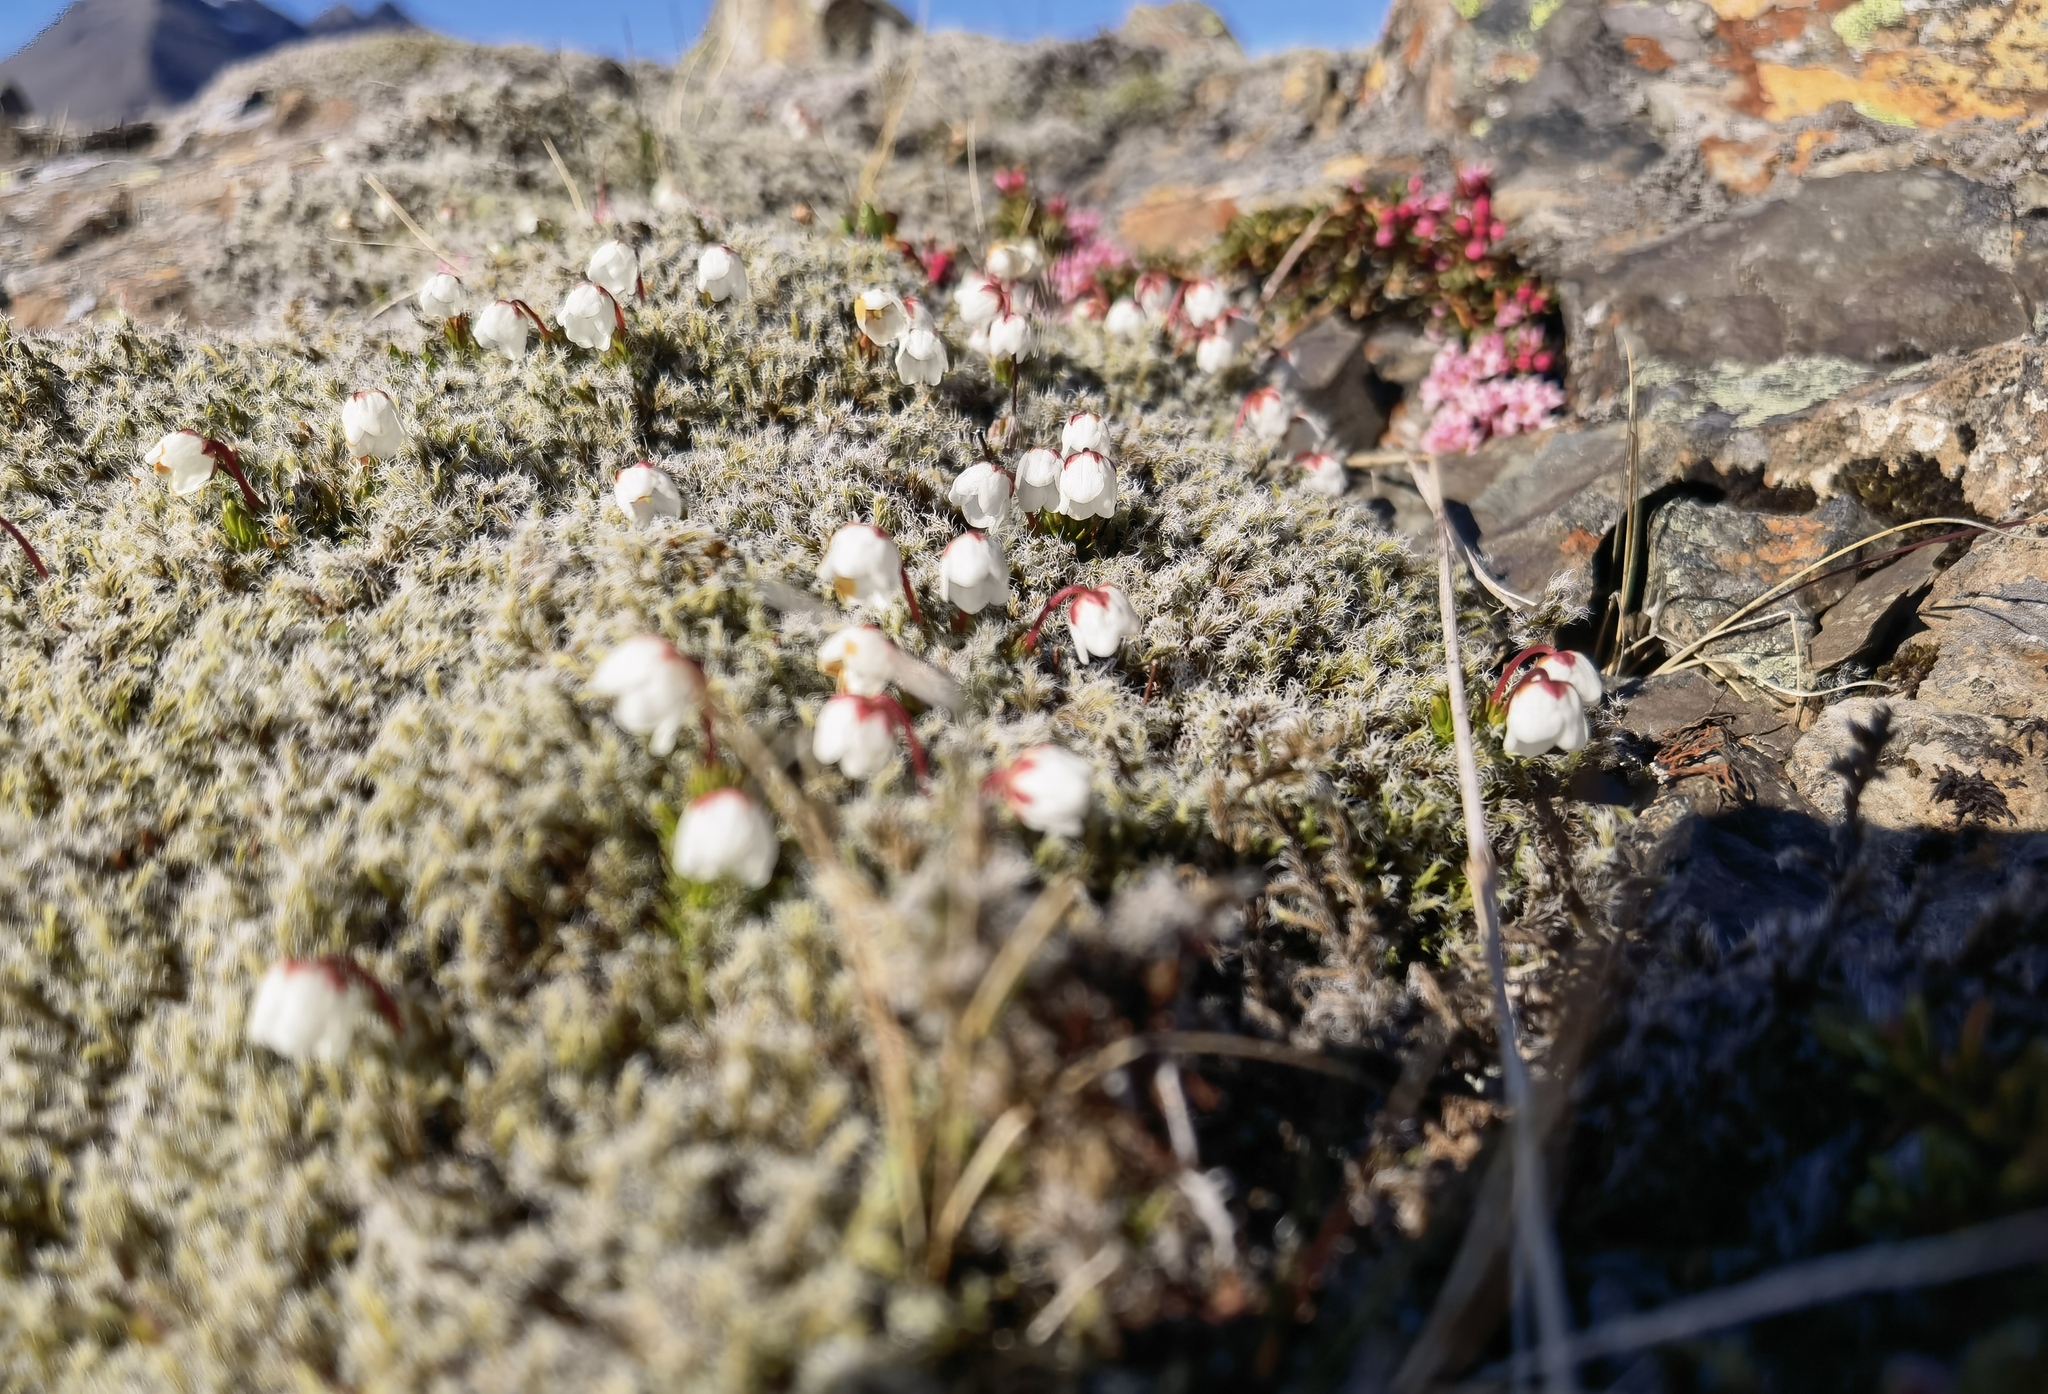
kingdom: Plantae
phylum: Tracheophyta
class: Magnoliopsida
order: Ericales
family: Ericaceae
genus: Harrimanella
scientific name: Harrimanella hypnoides
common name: Moss bell heather
